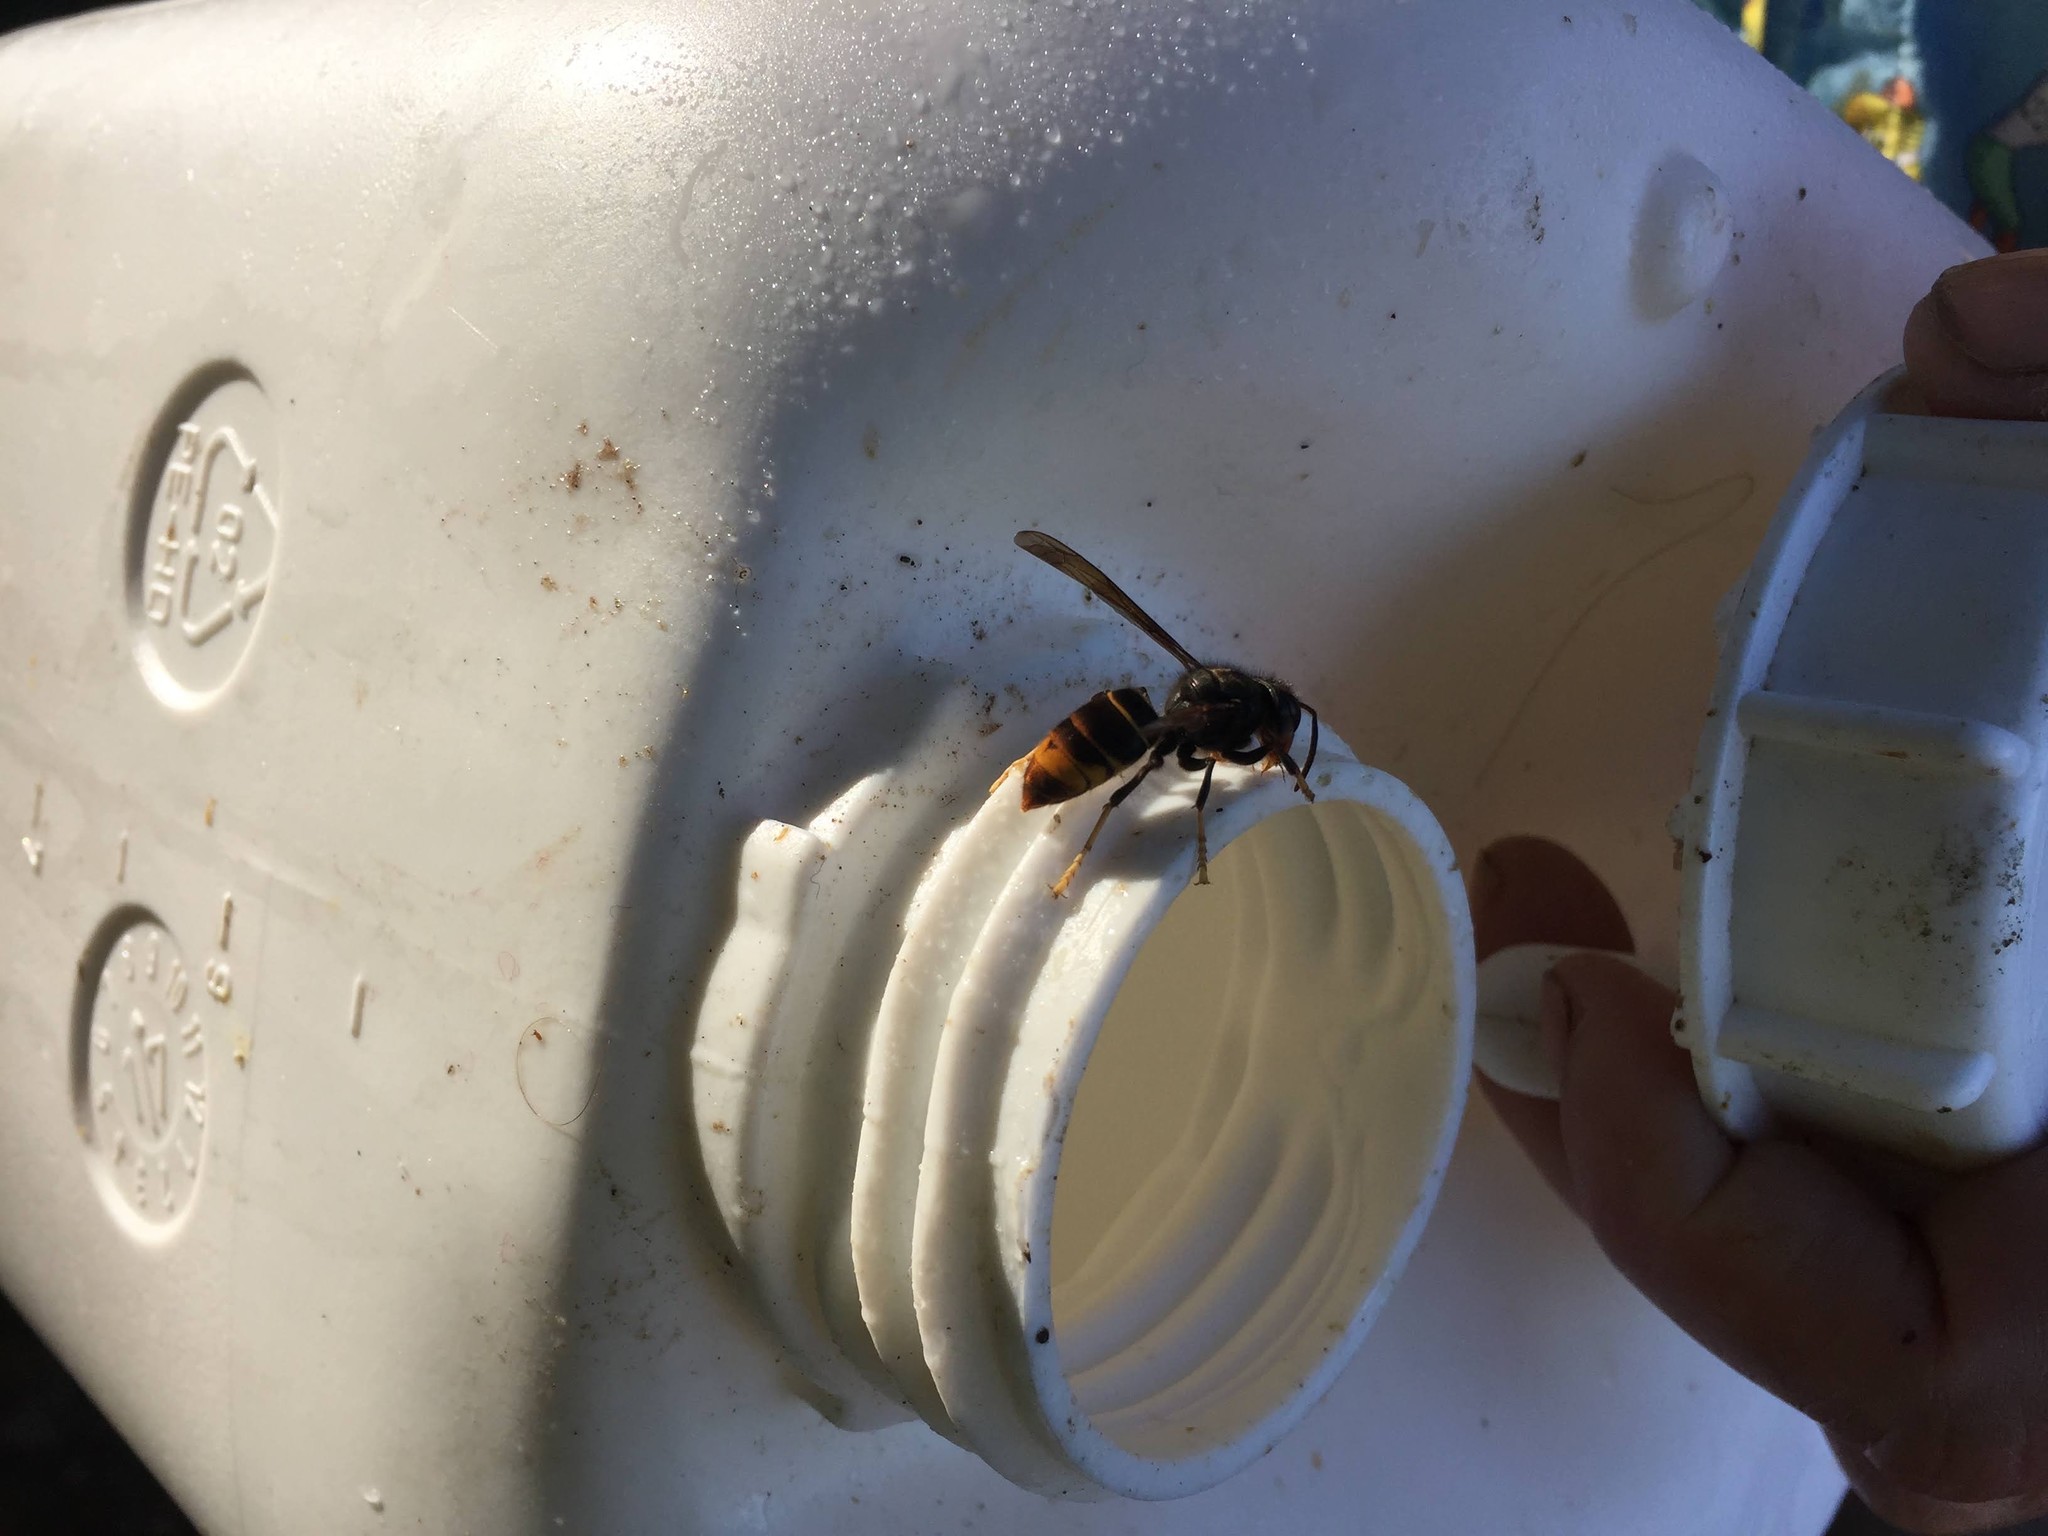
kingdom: Animalia
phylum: Arthropoda
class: Insecta
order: Hymenoptera
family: Vespidae
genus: Vespa
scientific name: Vespa velutina
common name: Asian hornet
